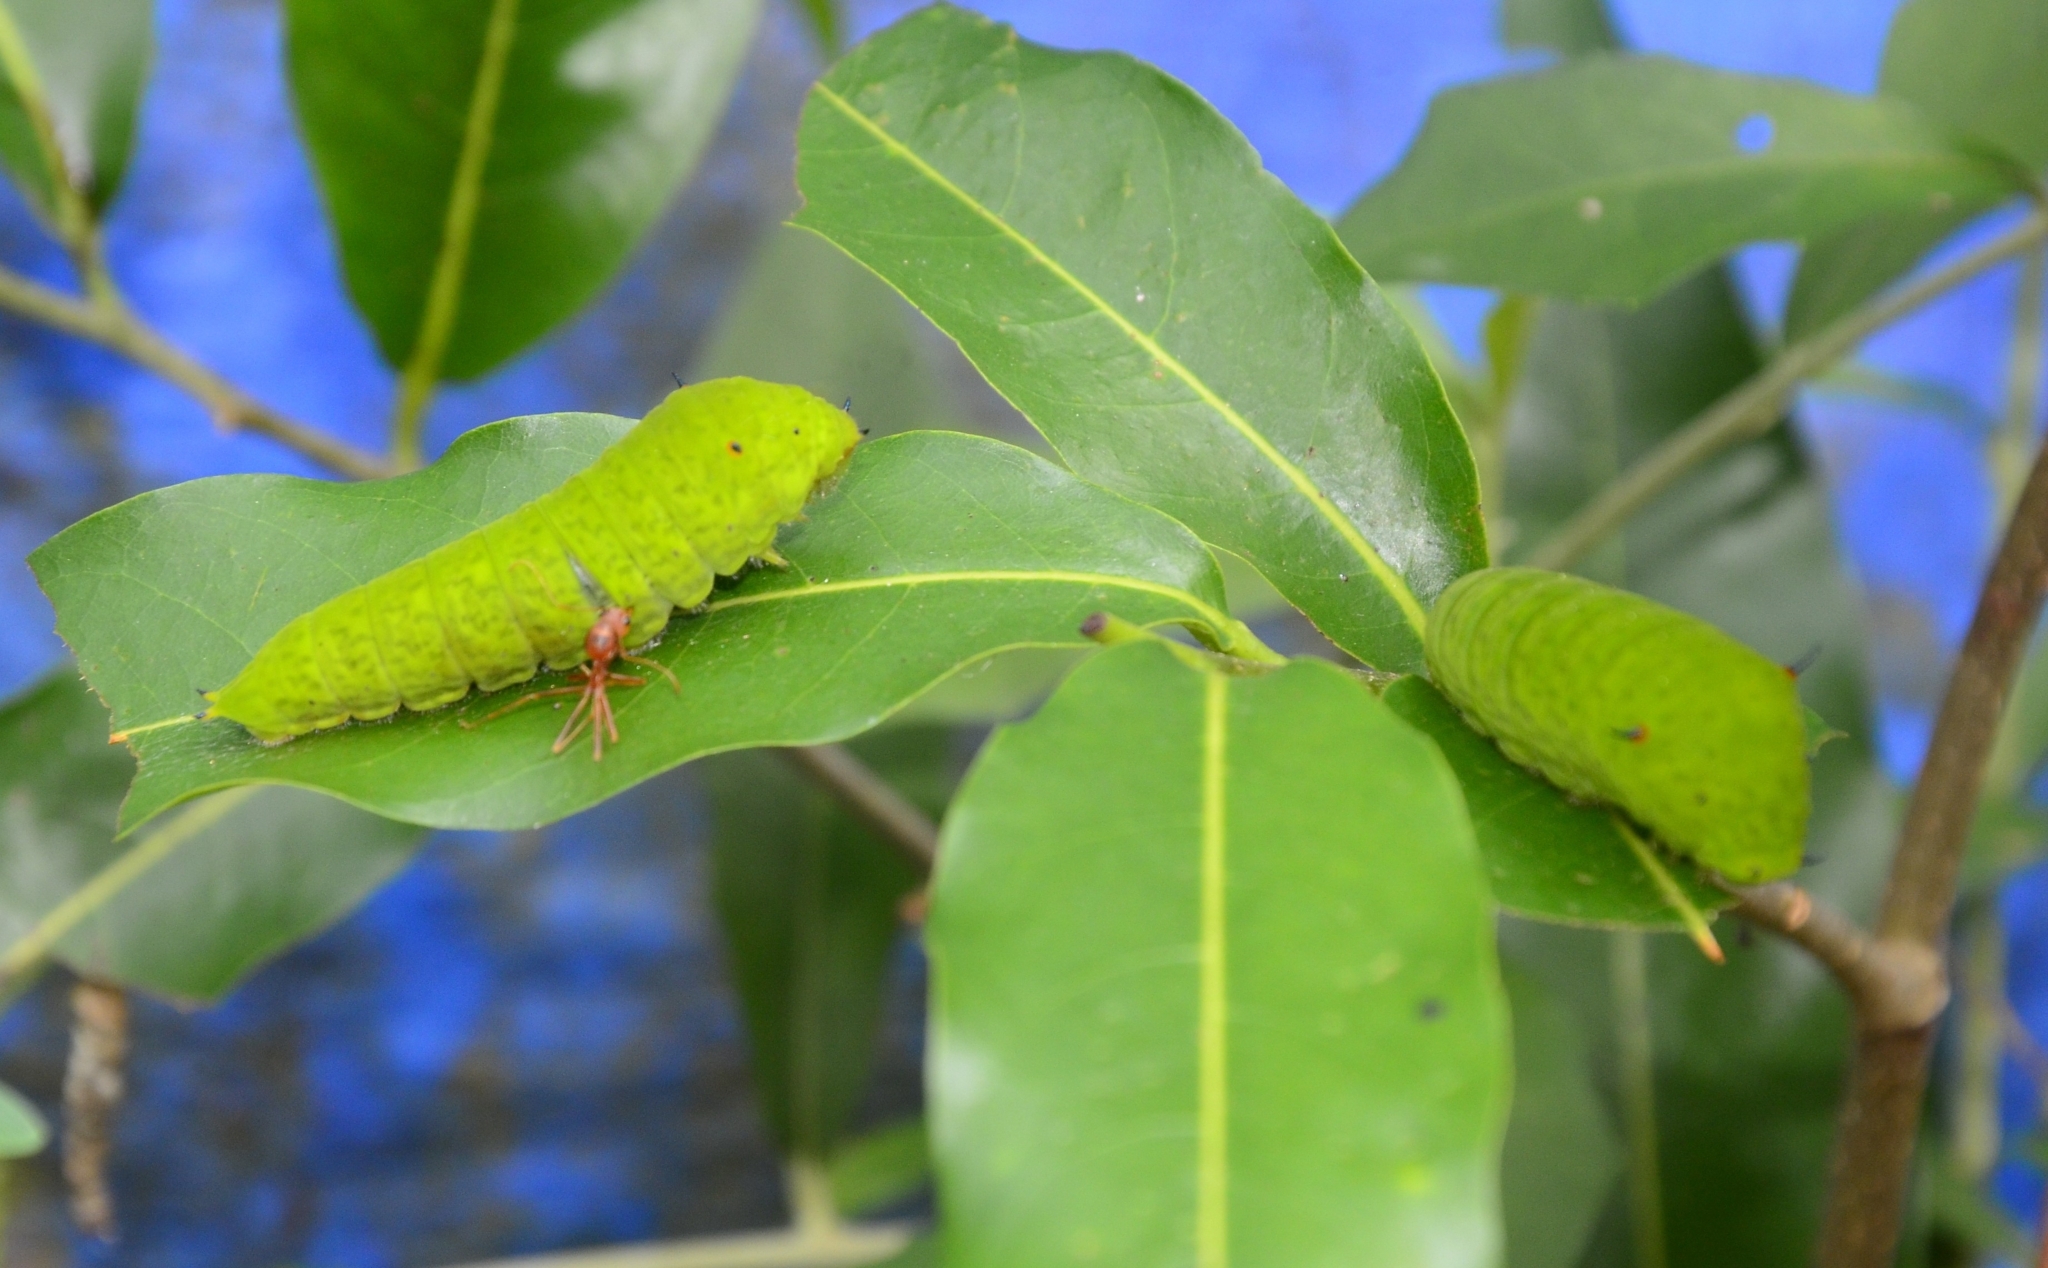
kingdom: Animalia
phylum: Arthropoda
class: Insecta
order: Lepidoptera
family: Papilionidae
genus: Graphium
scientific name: Graphium agamemnon
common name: Tailed jay
